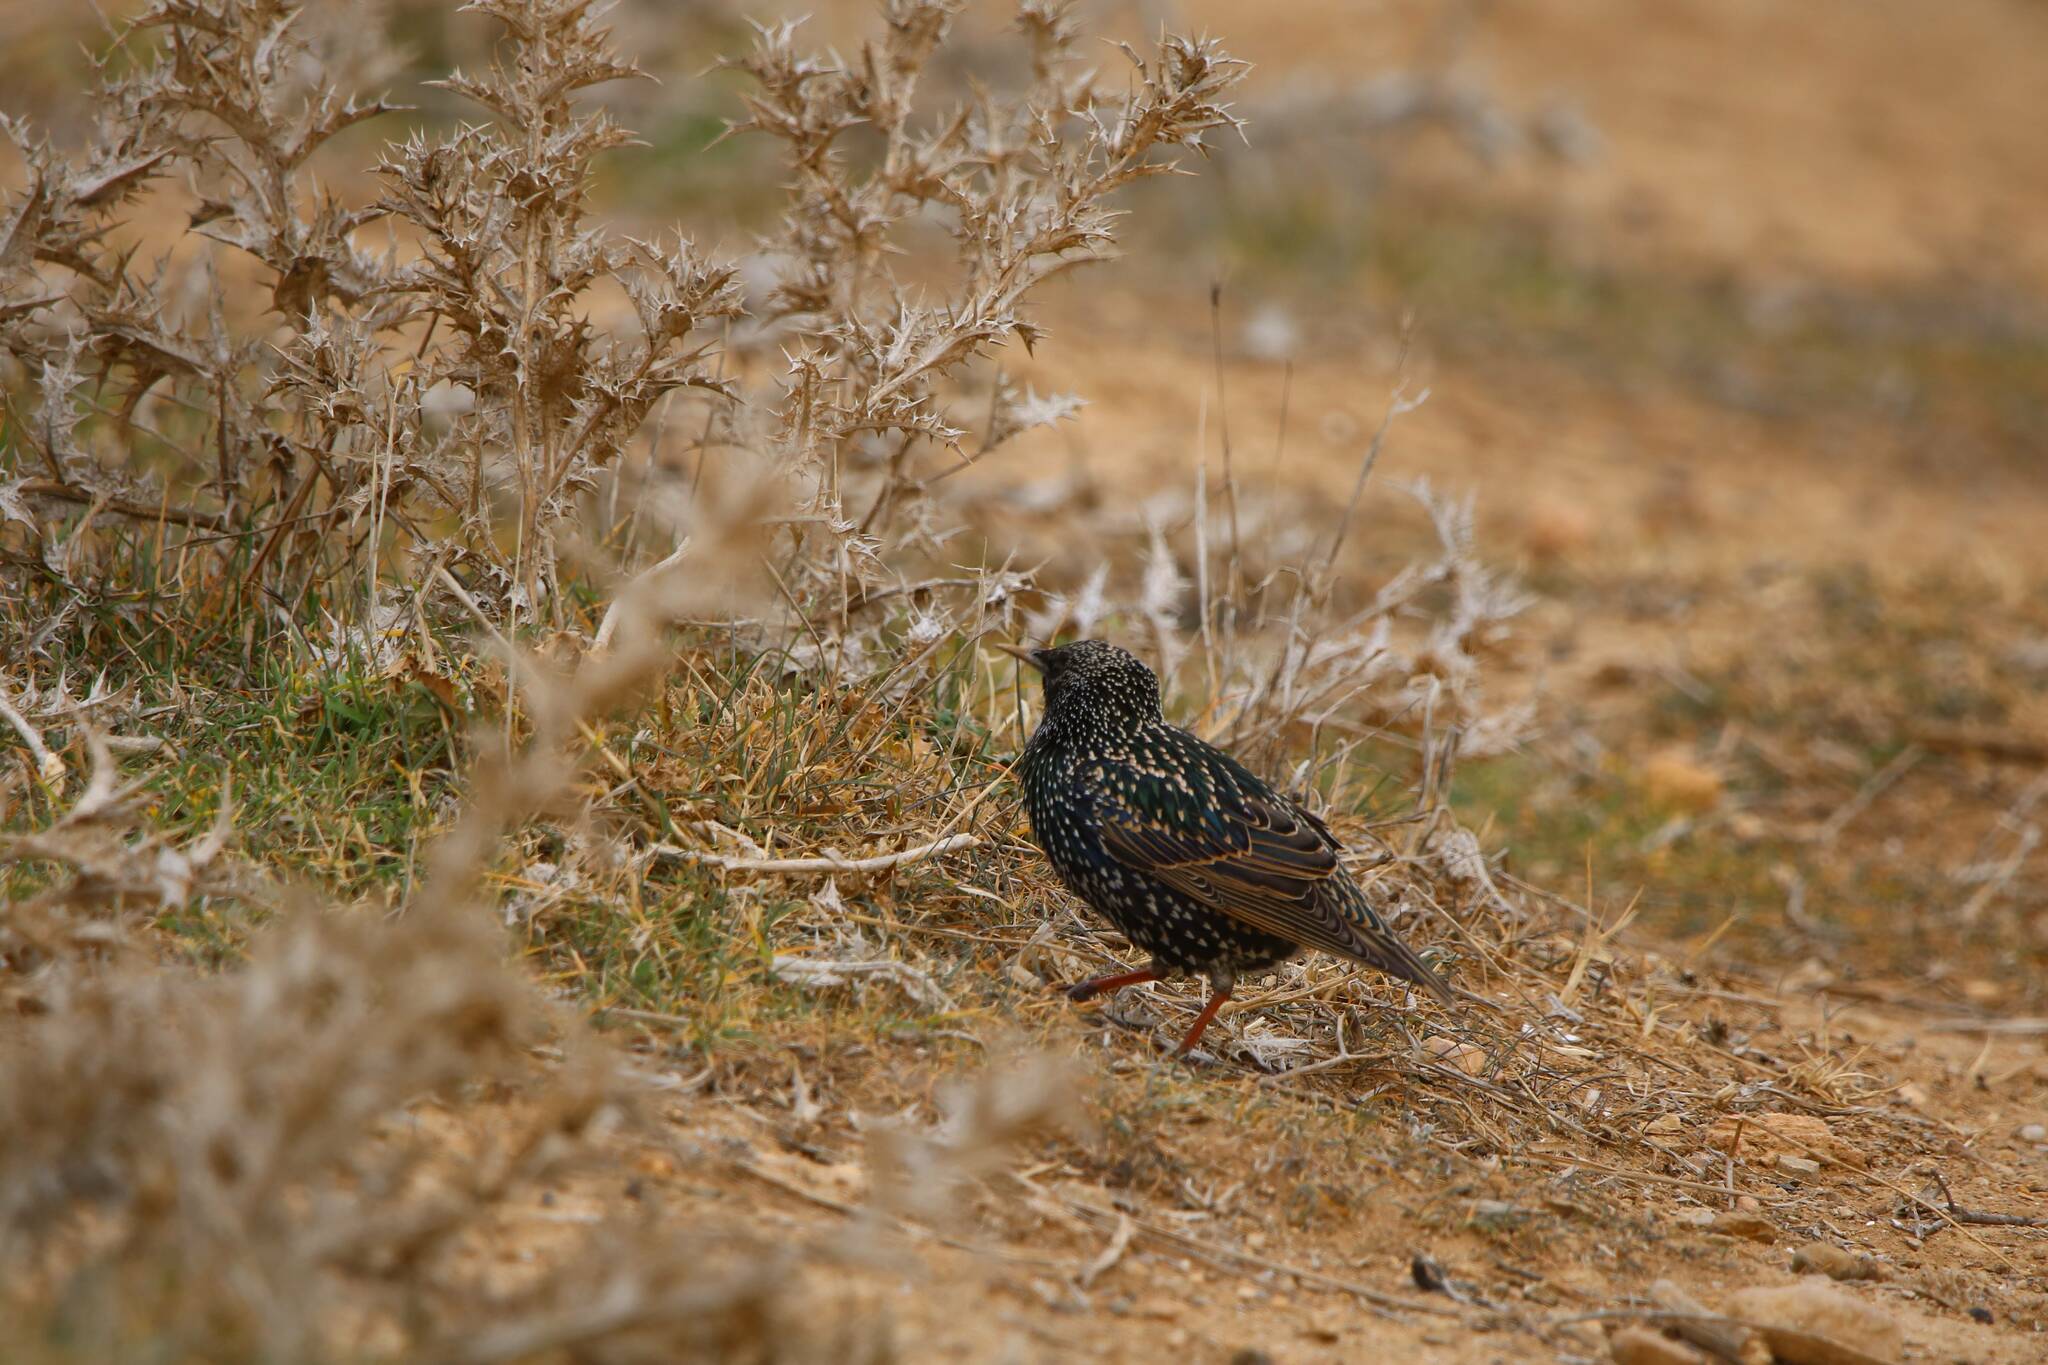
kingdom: Animalia
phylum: Chordata
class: Aves
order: Passeriformes
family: Sturnidae
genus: Sturnus
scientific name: Sturnus vulgaris
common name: Common starling
